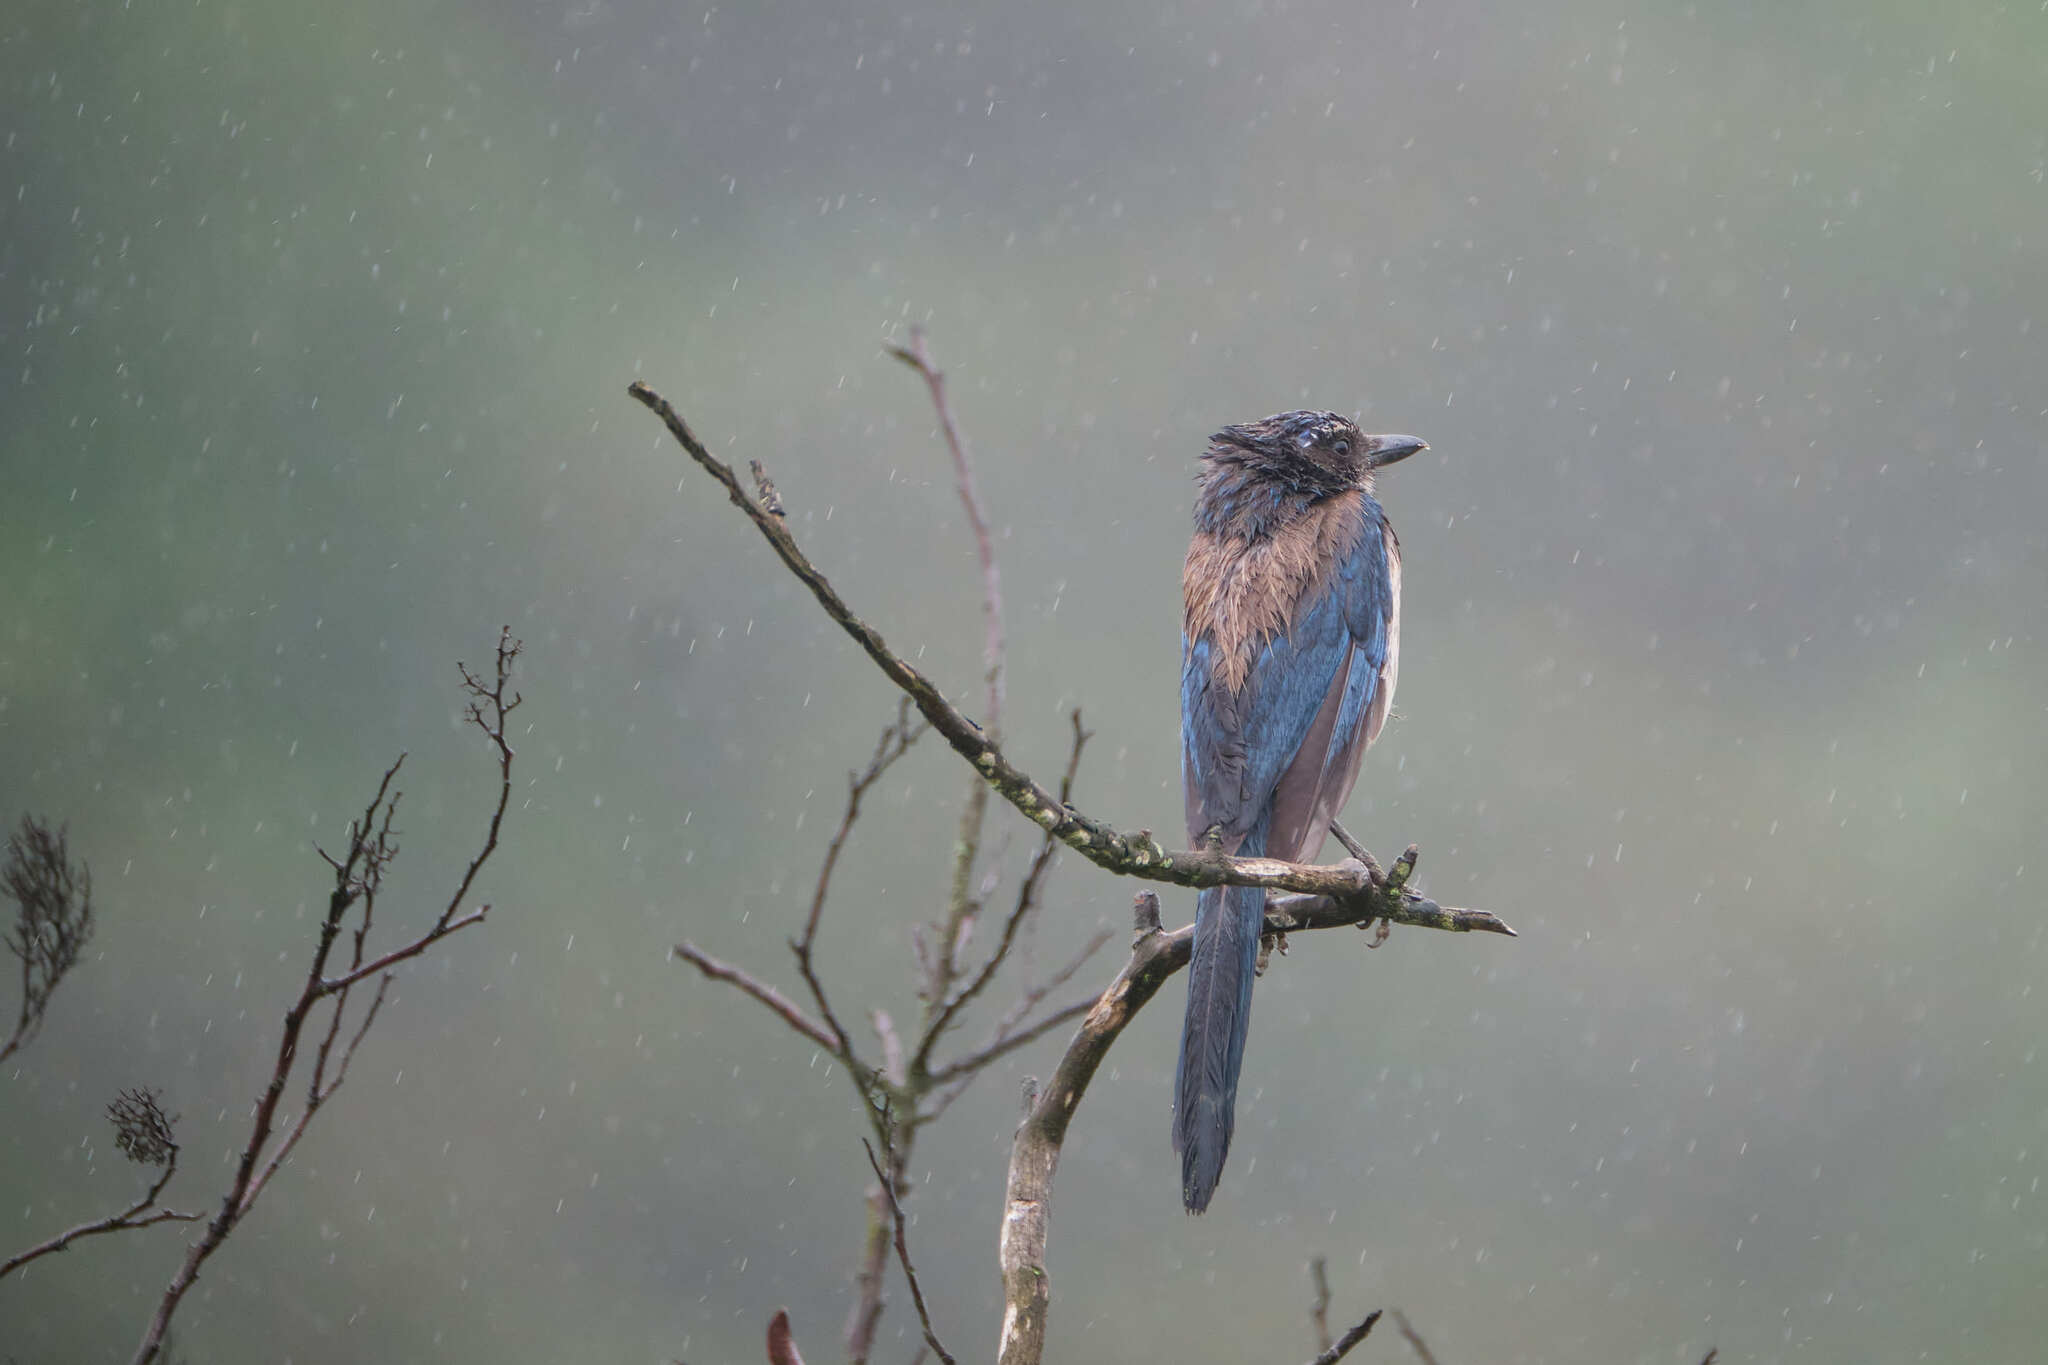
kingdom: Animalia
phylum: Chordata
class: Aves
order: Passeriformes
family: Corvidae
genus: Aphelocoma
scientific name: Aphelocoma californica
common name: California scrub-jay
